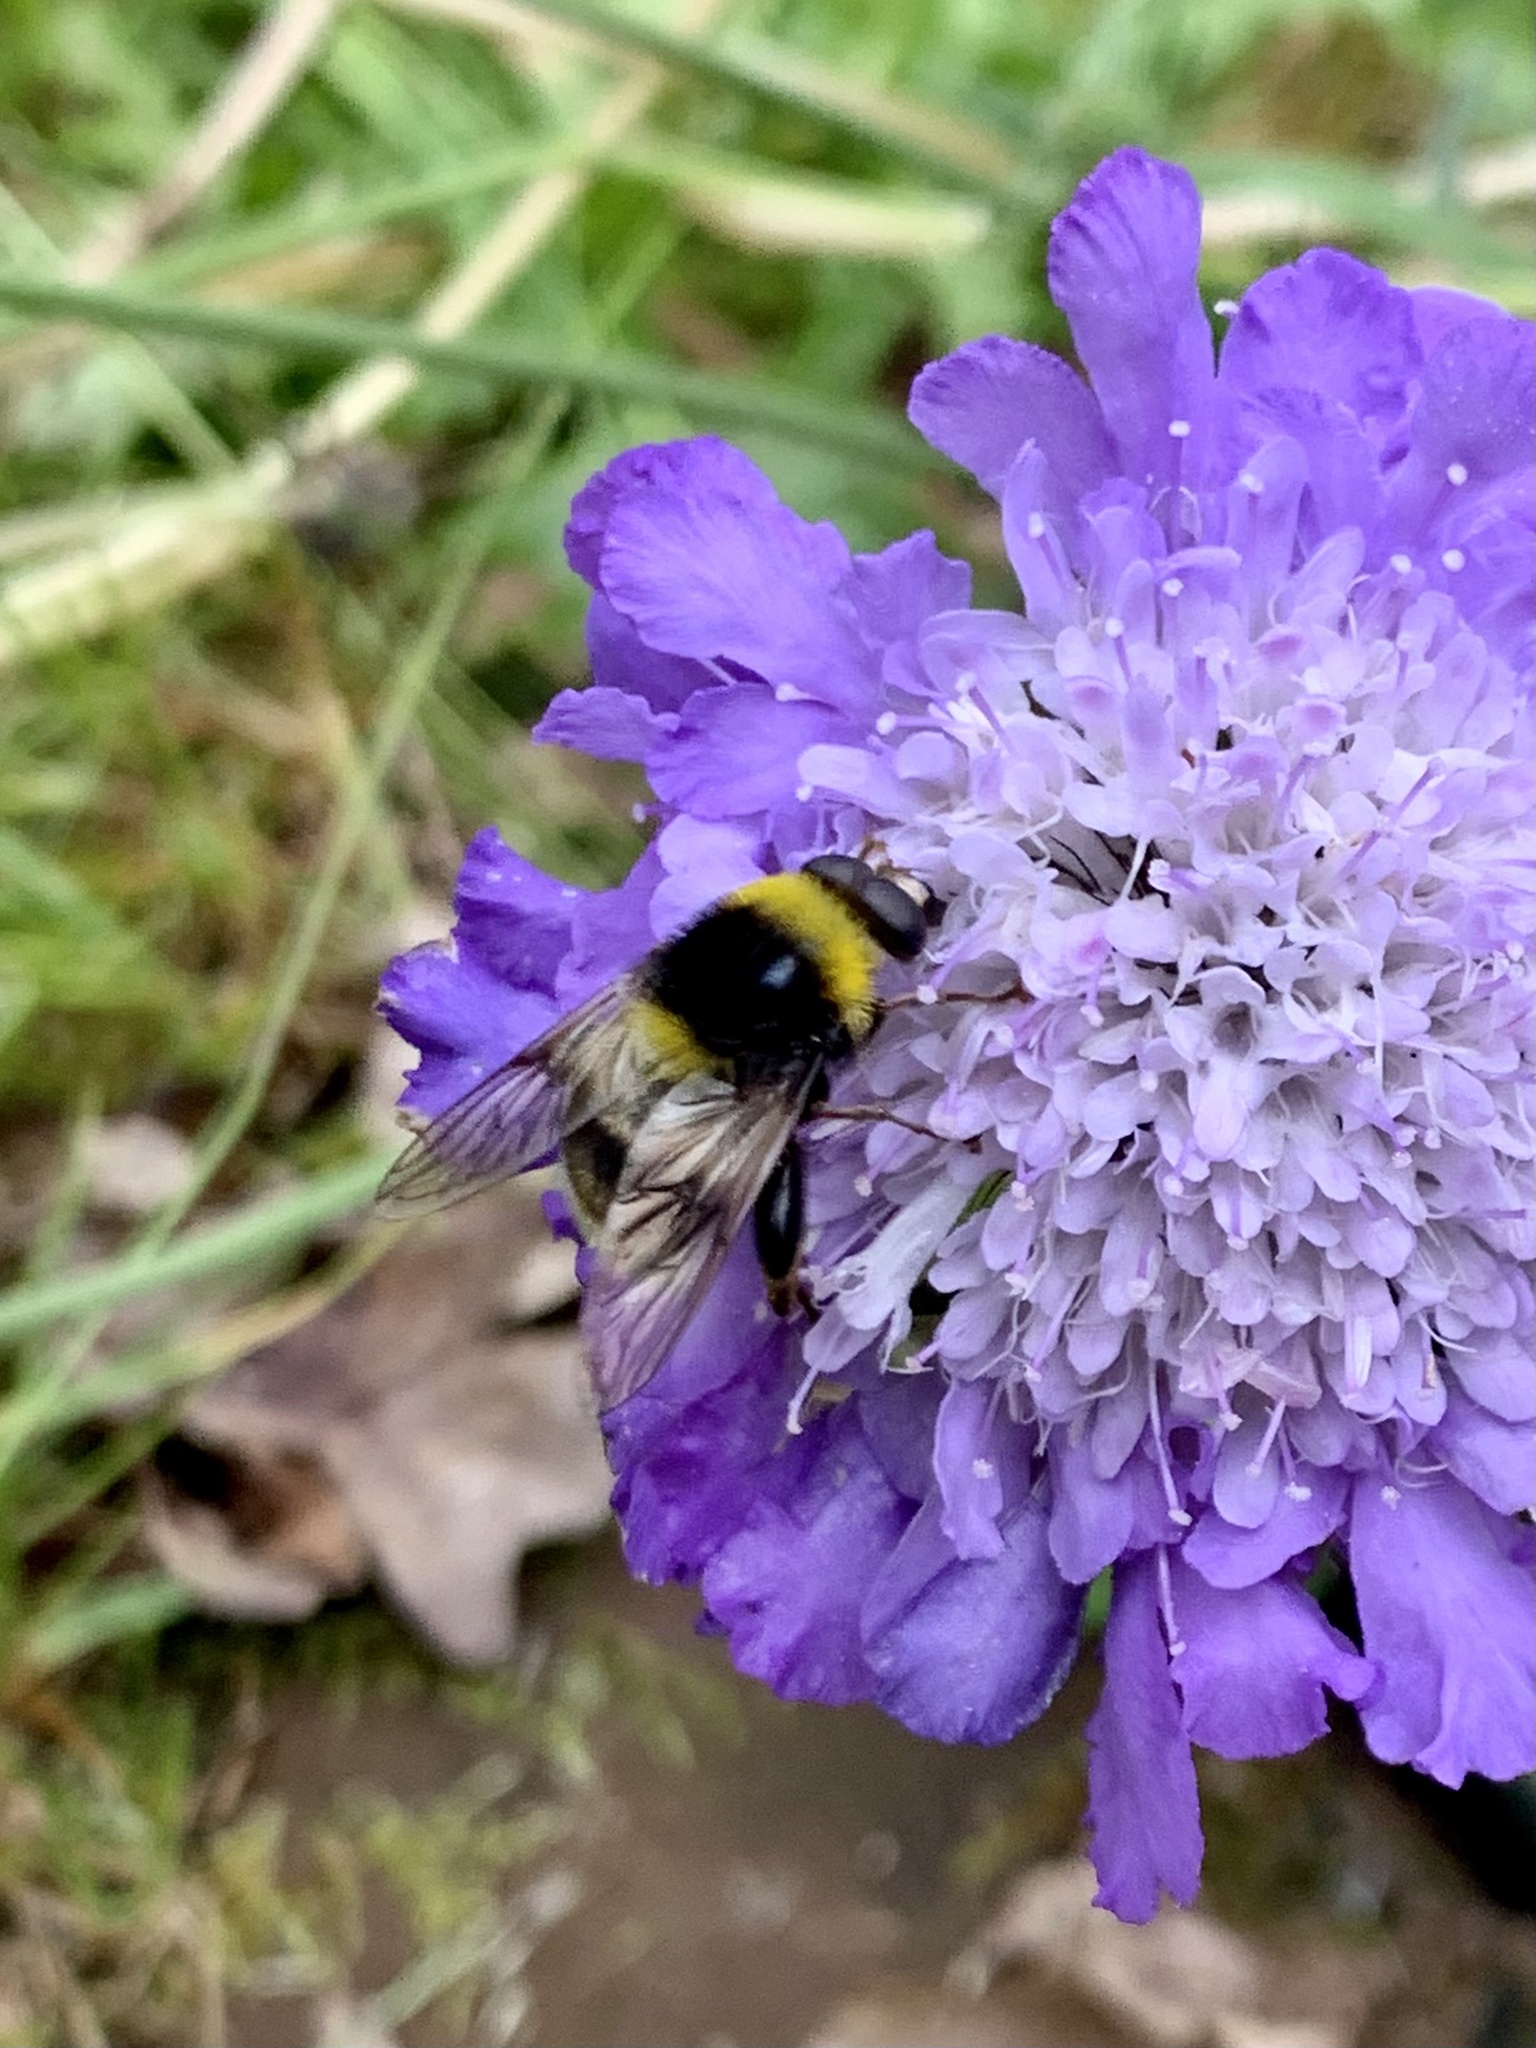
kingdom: Animalia
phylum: Arthropoda
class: Insecta
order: Diptera
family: Syrphidae
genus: Sericomyia
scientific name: Sericomyia bombiformis
